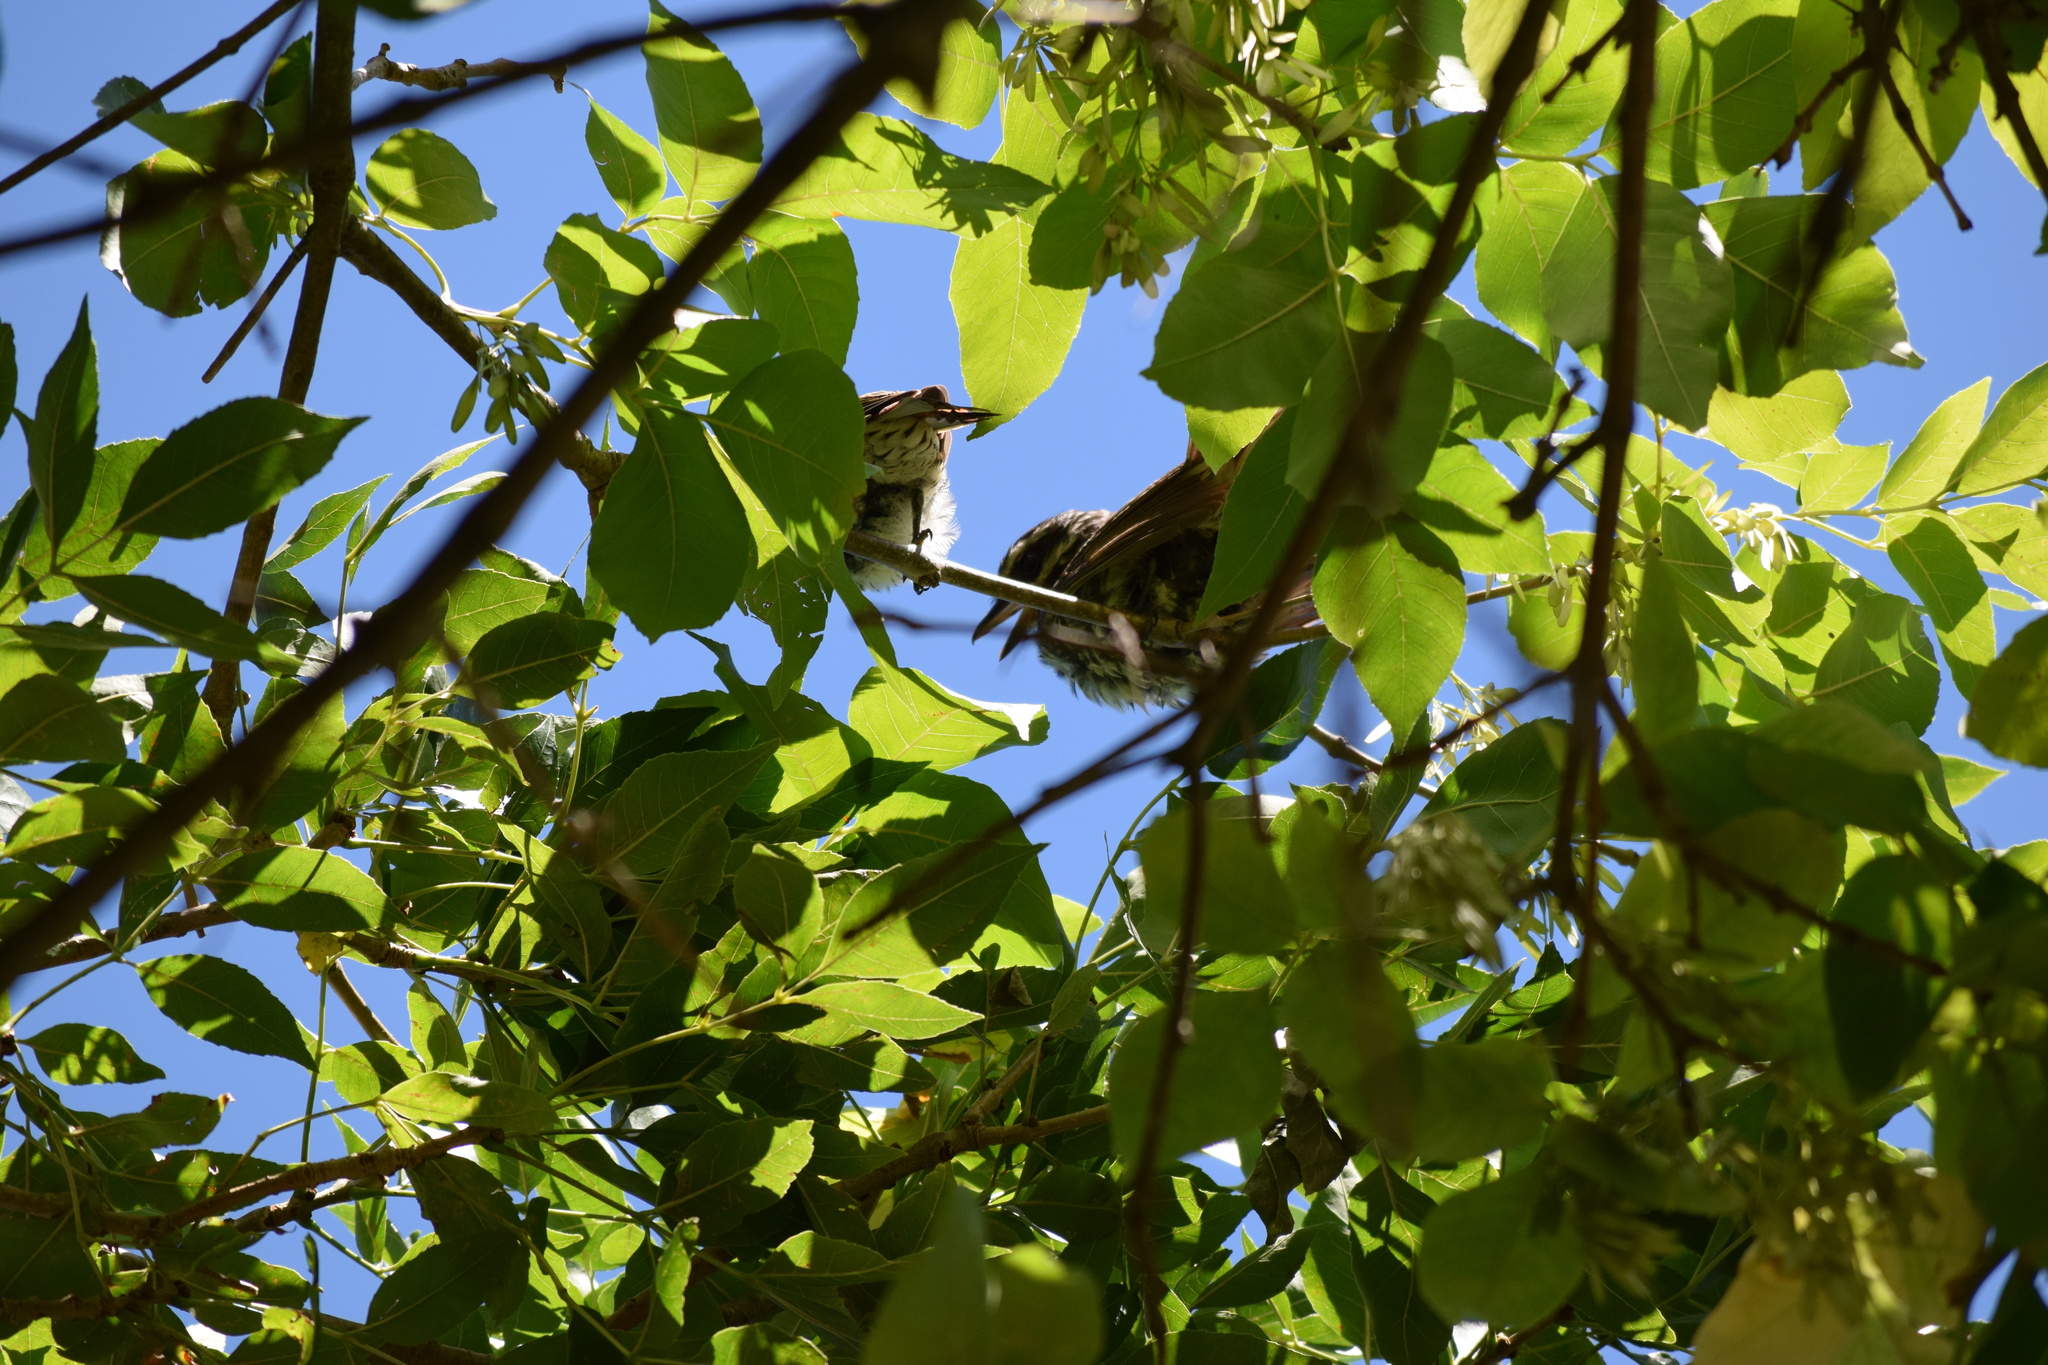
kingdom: Animalia
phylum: Chordata
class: Aves
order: Passeriformes
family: Tyrannidae
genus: Myiodynastes
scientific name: Myiodynastes maculatus
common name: Streaked flycatcher
